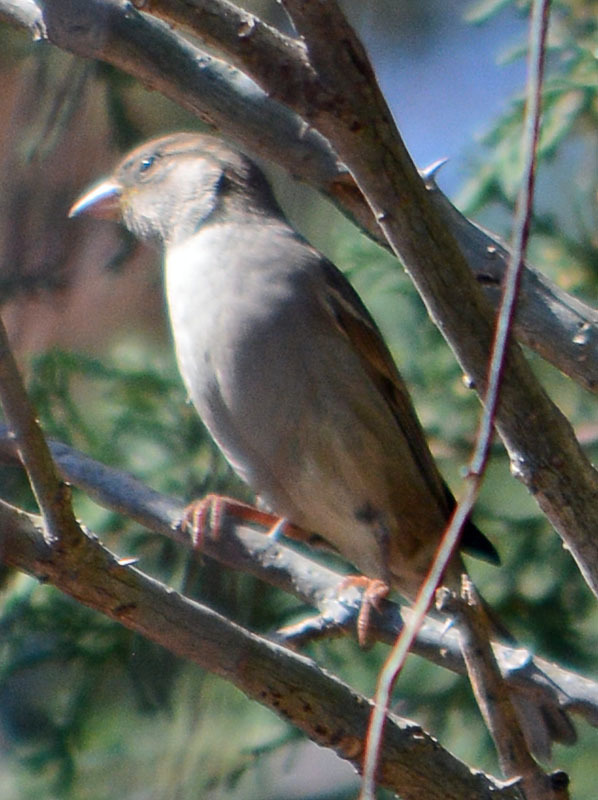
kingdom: Animalia
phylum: Chordata
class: Aves
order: Passeriformes
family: Passeridae
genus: Passer
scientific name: Passer domesticus
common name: House sparrow
